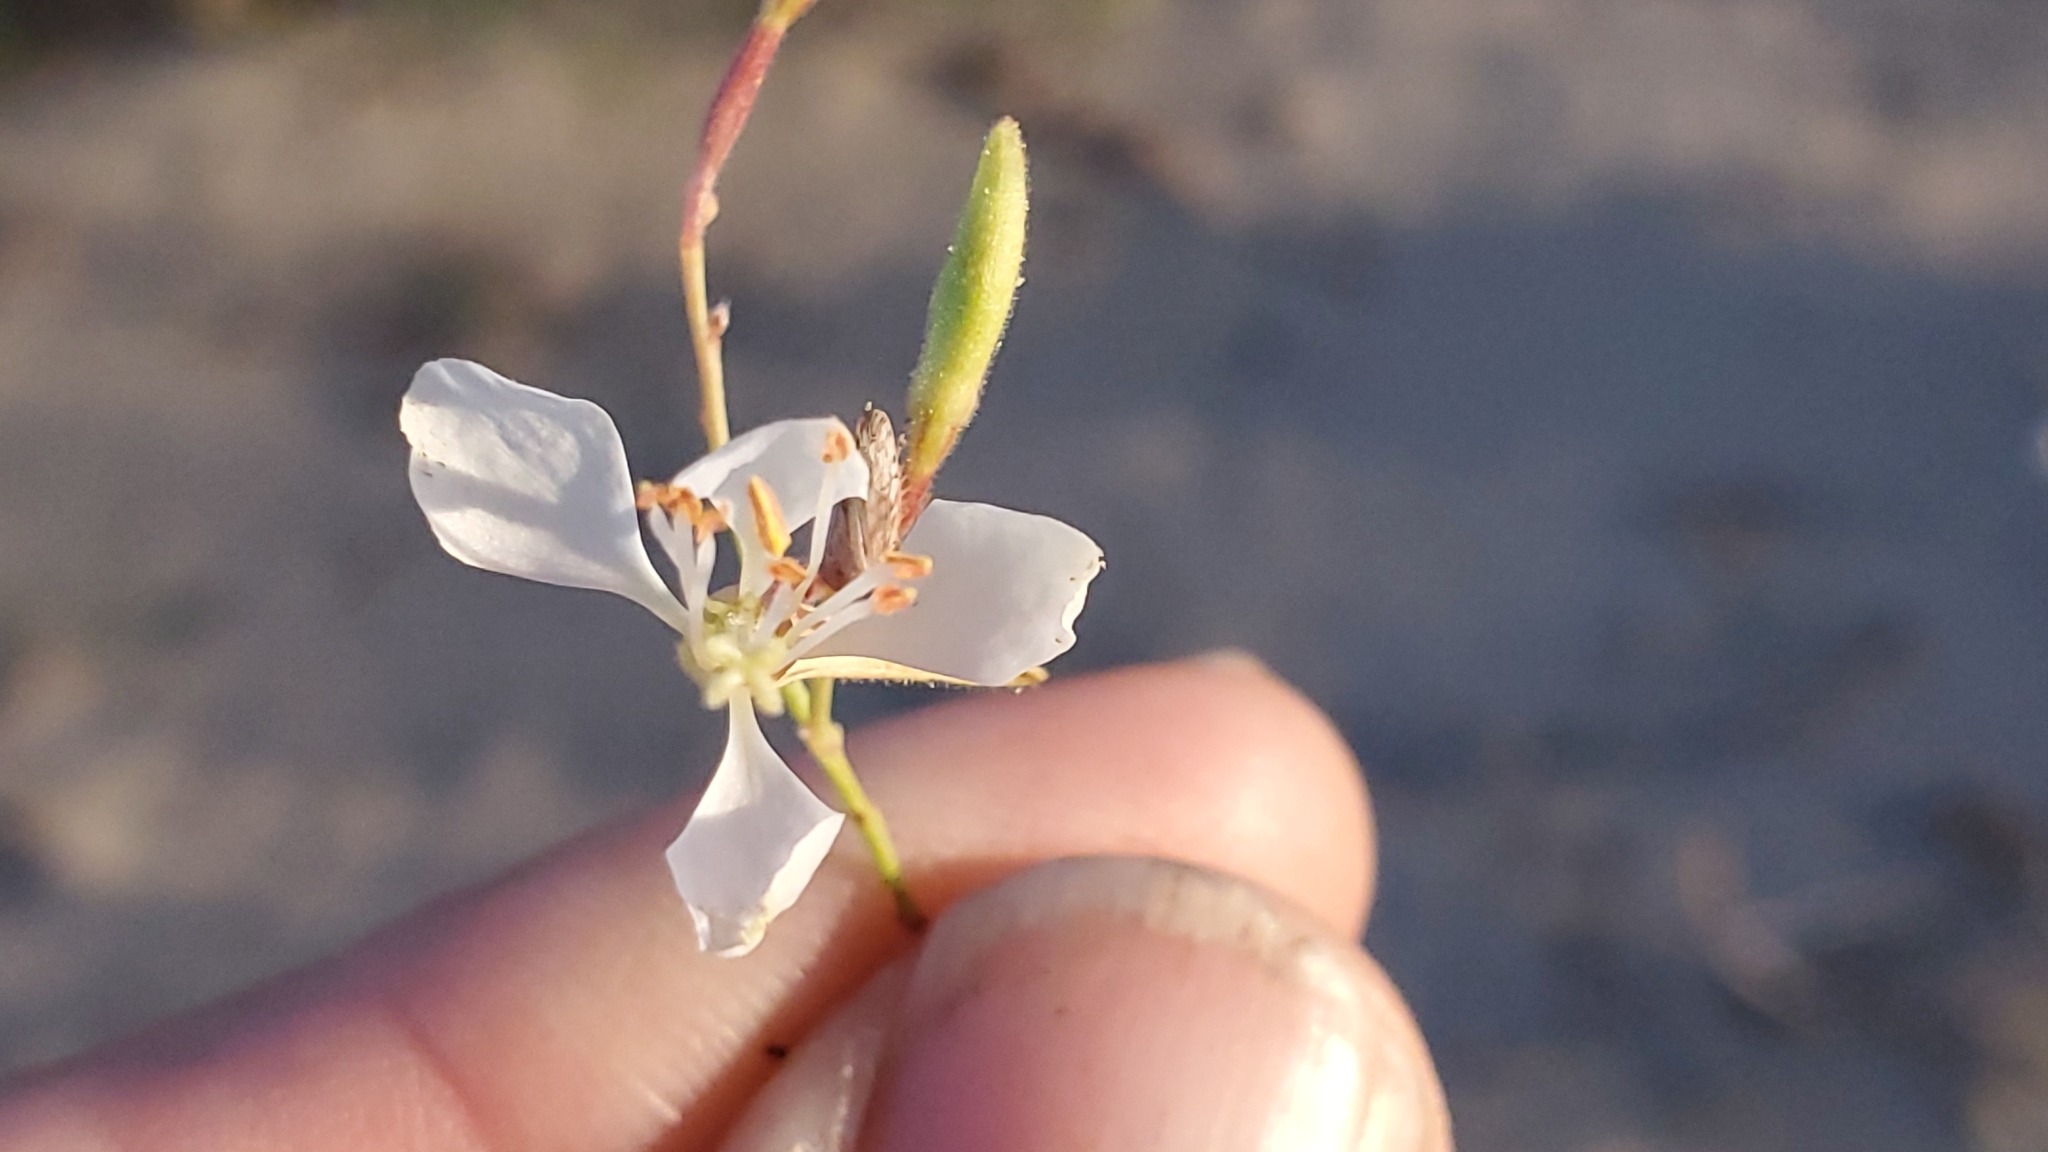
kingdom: Plantae
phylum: Tracheophyta
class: Magnoliopsida
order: Myrtales
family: Onagraceae
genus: Oenothera
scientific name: Oenothera cinerea
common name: Woolly beeblossom
